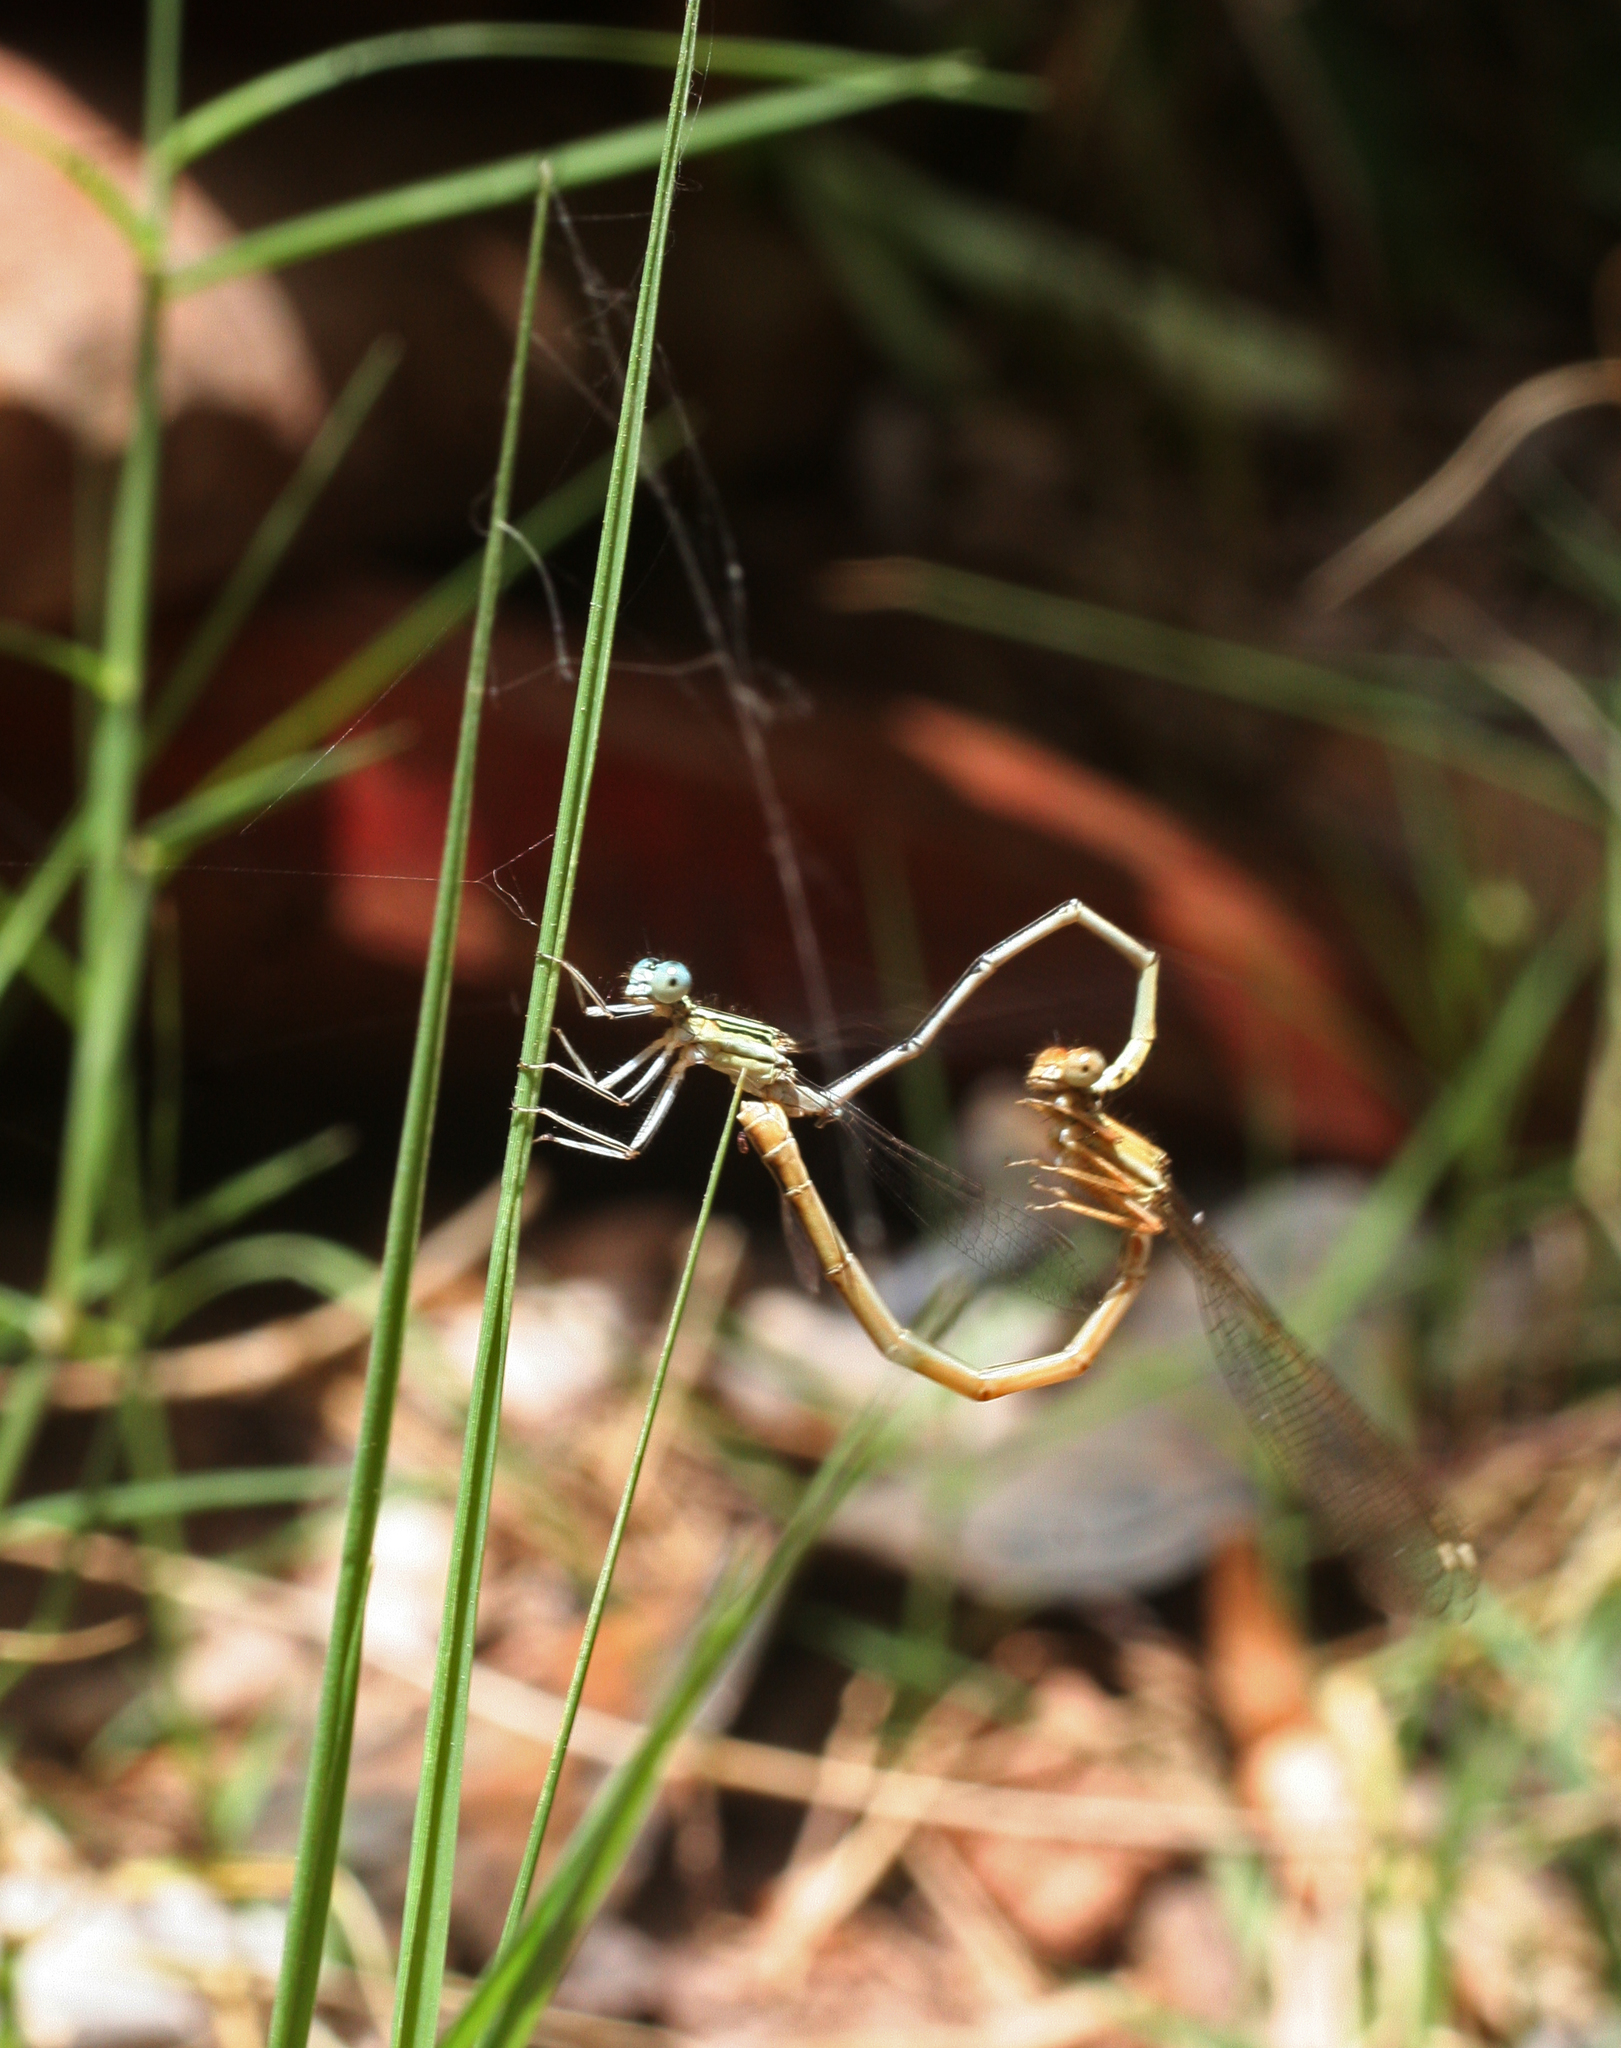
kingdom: Animalia
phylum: Arthropoda
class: Insecta
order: Odonata
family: Platycnemididae
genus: Platycnemis
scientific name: Platycnemis subdilatata
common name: Barbary featherleg
